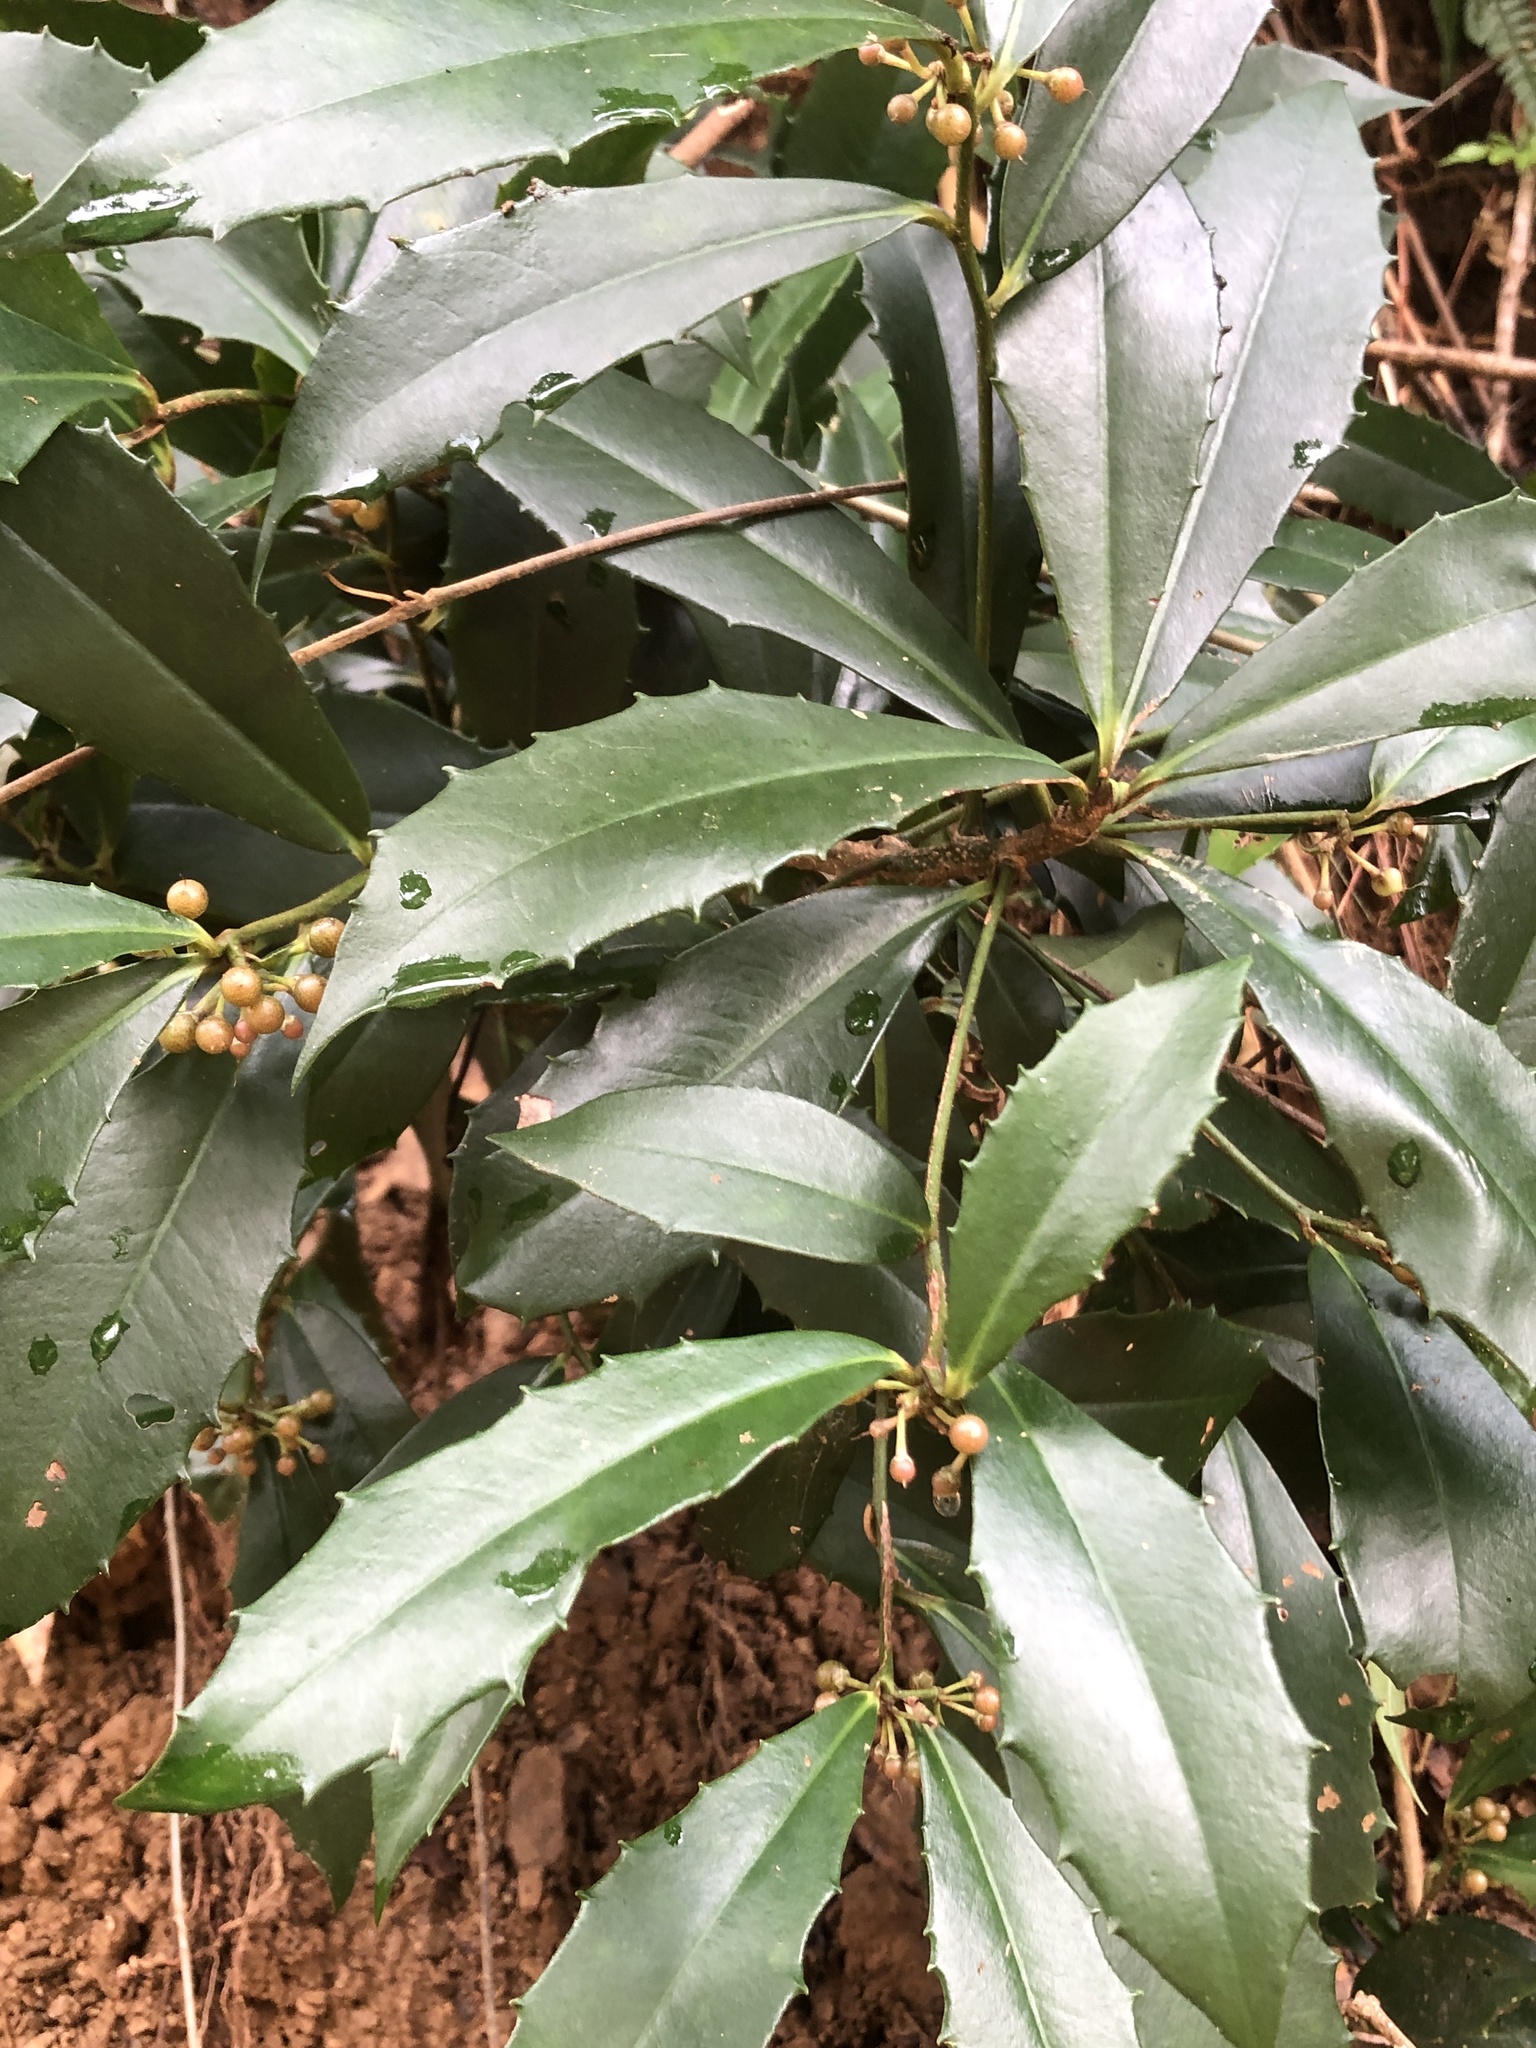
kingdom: Plantae
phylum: Tracheophyta
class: Magnoliopsida
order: Ericales
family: Primulaceae
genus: Ardisia
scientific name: Ardisia cornudentata
